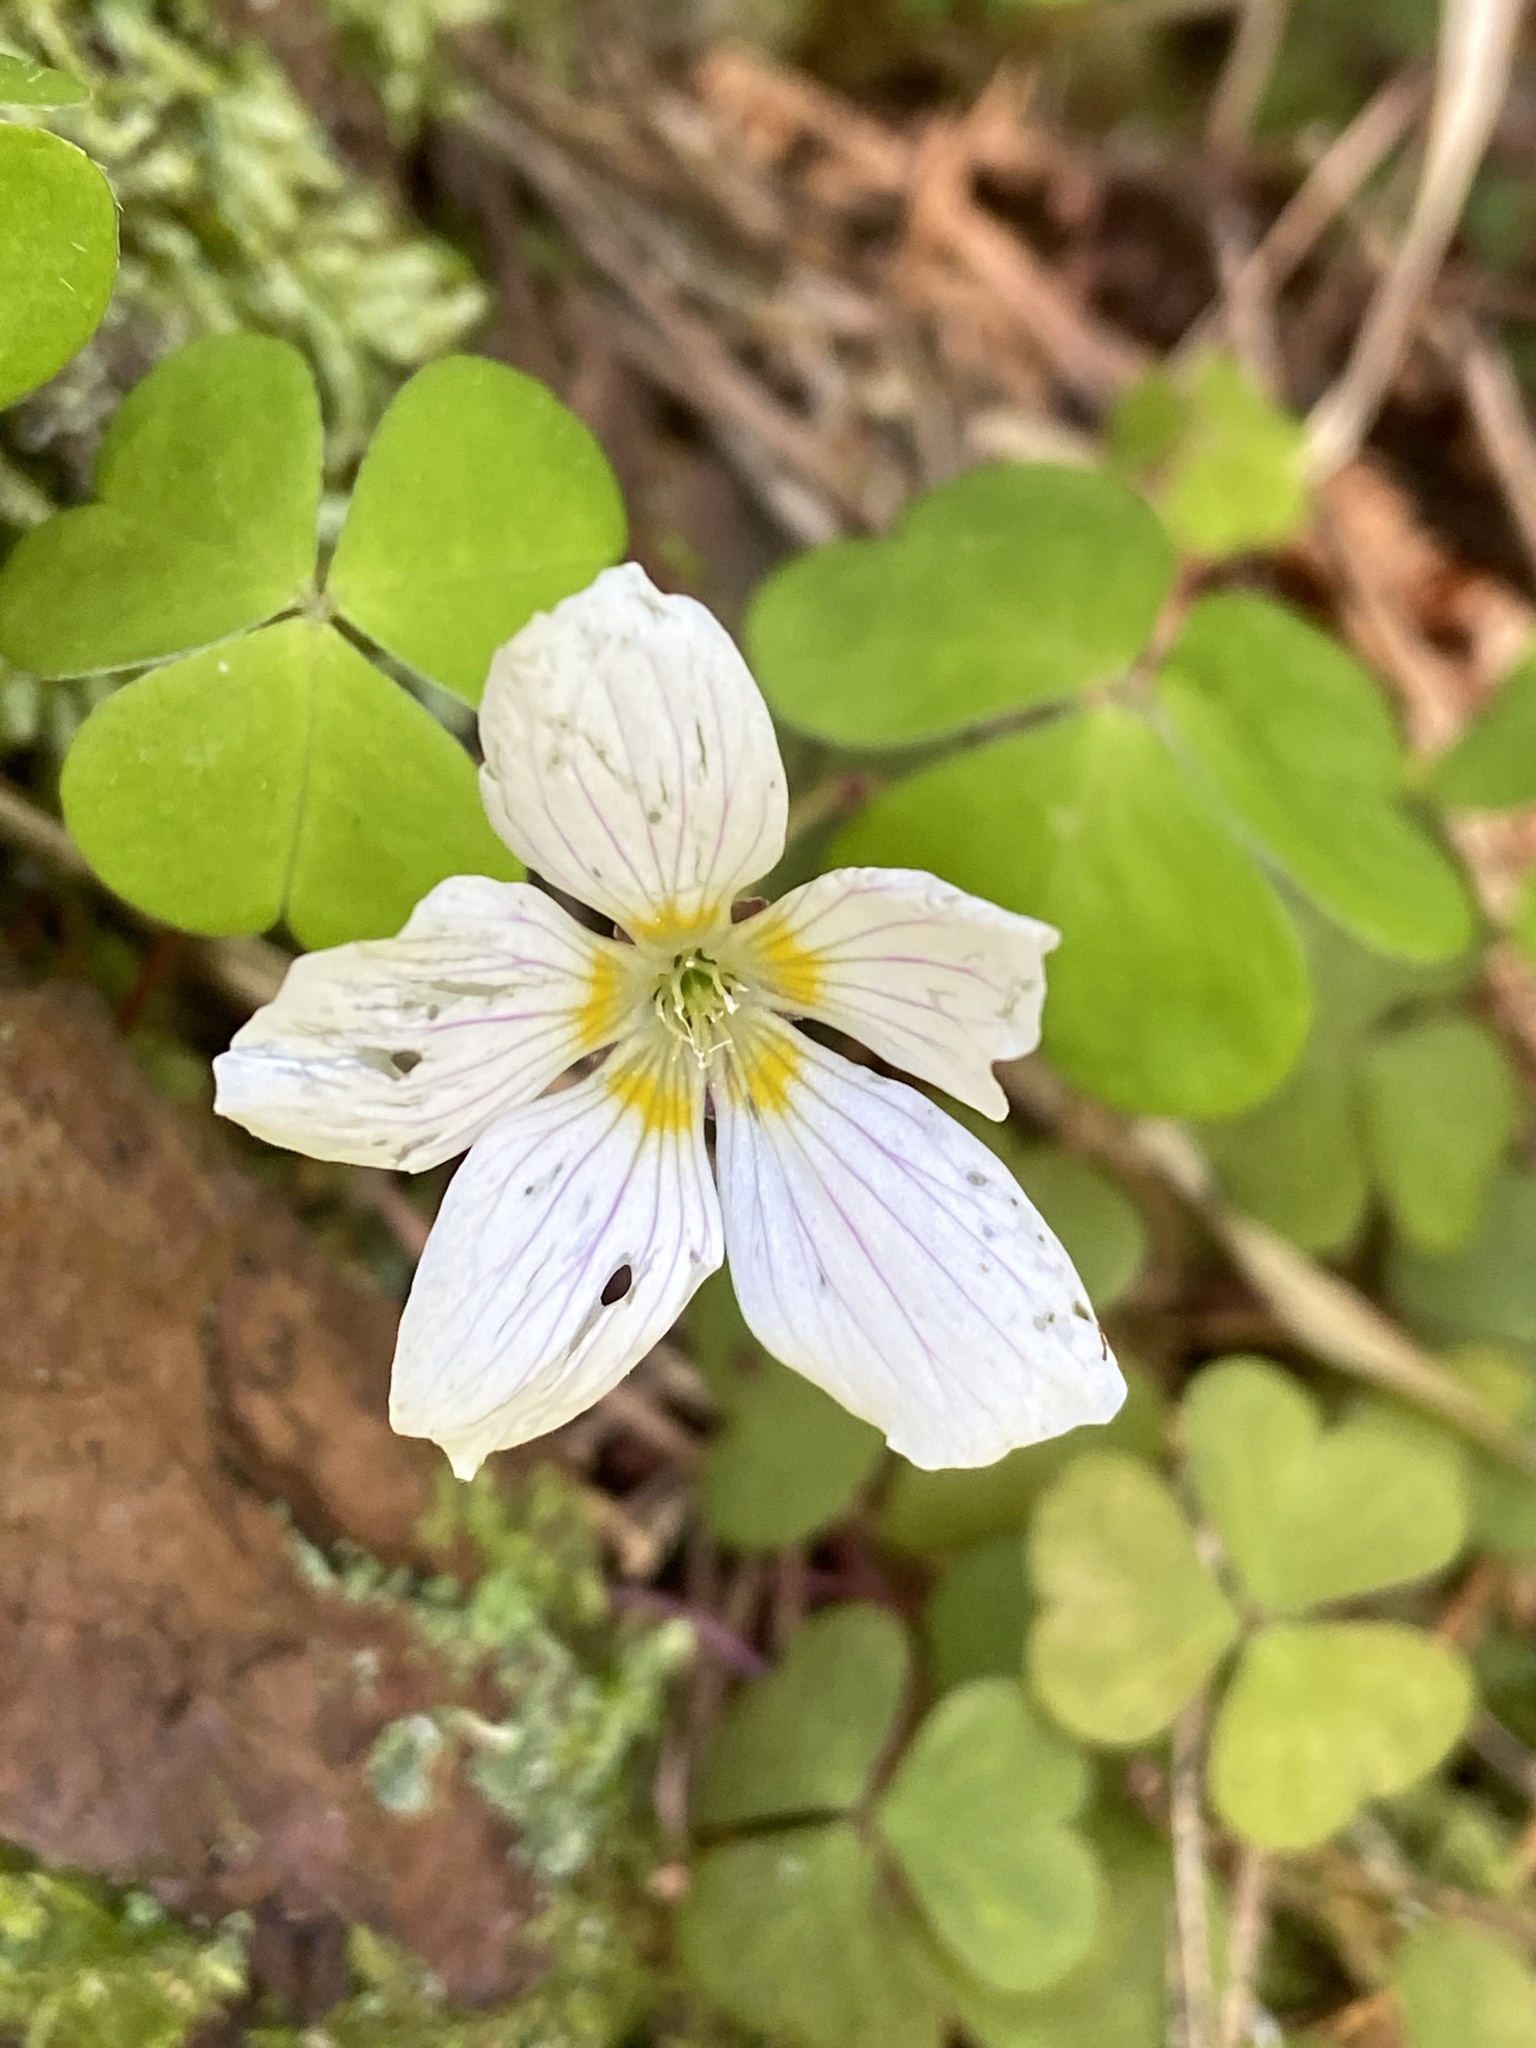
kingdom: Plantae
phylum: Tracheophyta
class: Magnoliopsida
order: Oxalidales
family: Oxalidaceae
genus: Oxalis
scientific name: Oxalis acetosella
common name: Wood-sorrel
